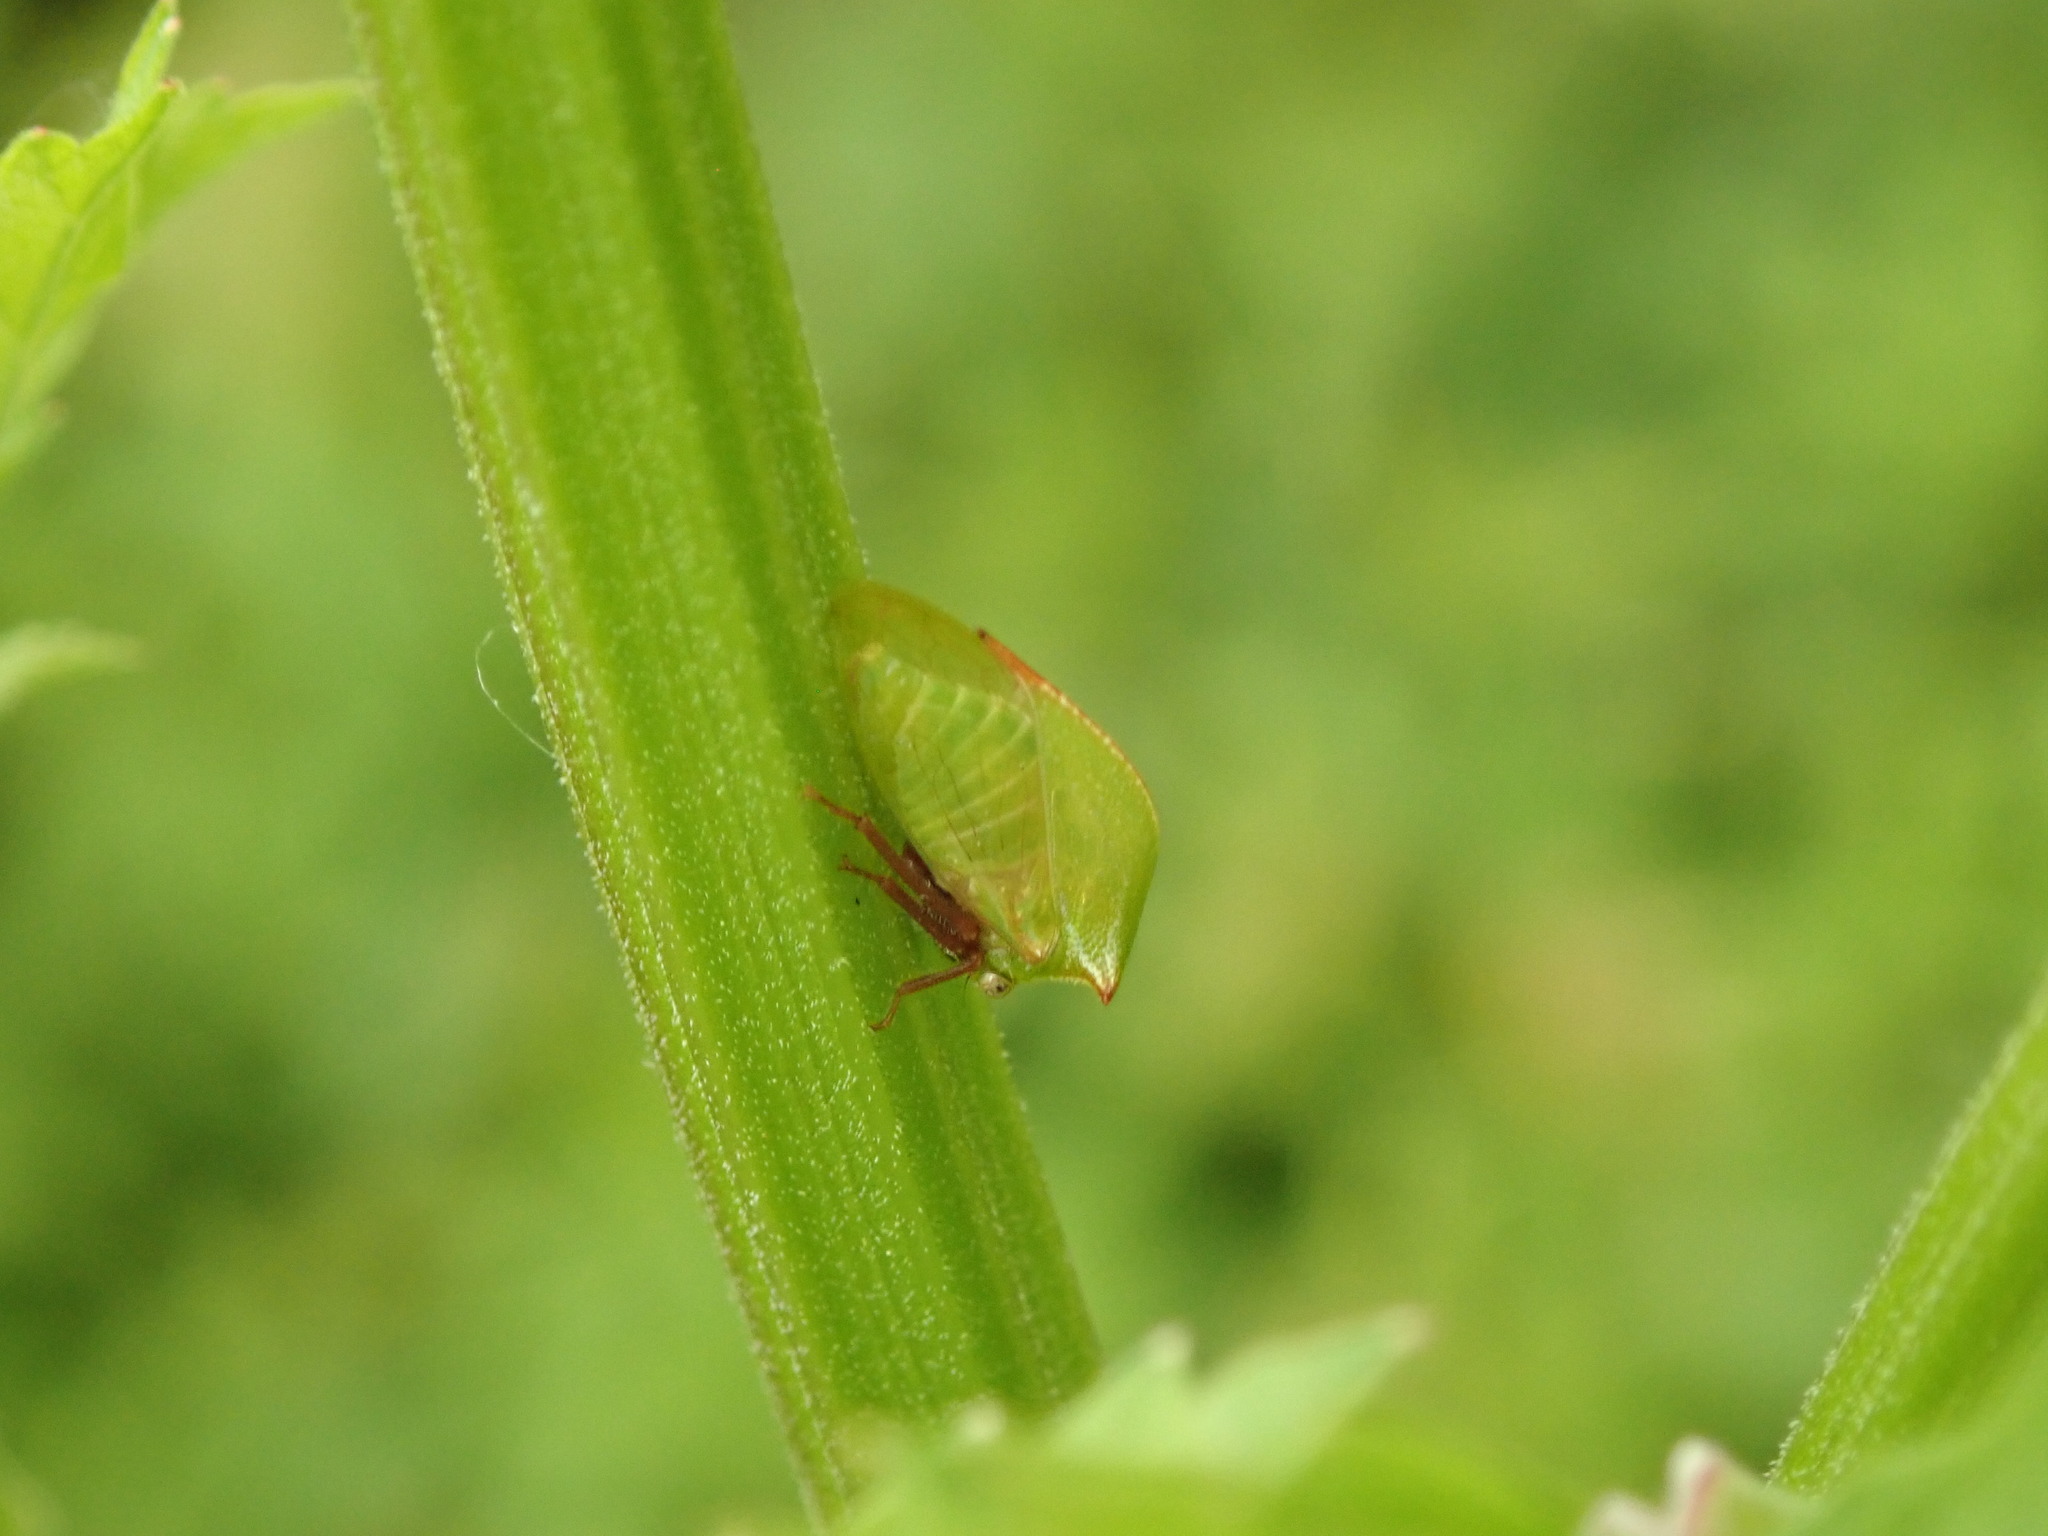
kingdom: Animalia
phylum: Arthropoda
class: Insecta
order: Hemiptera
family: Membracidae
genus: Stictocephala
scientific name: Stictocephala brevitylus
